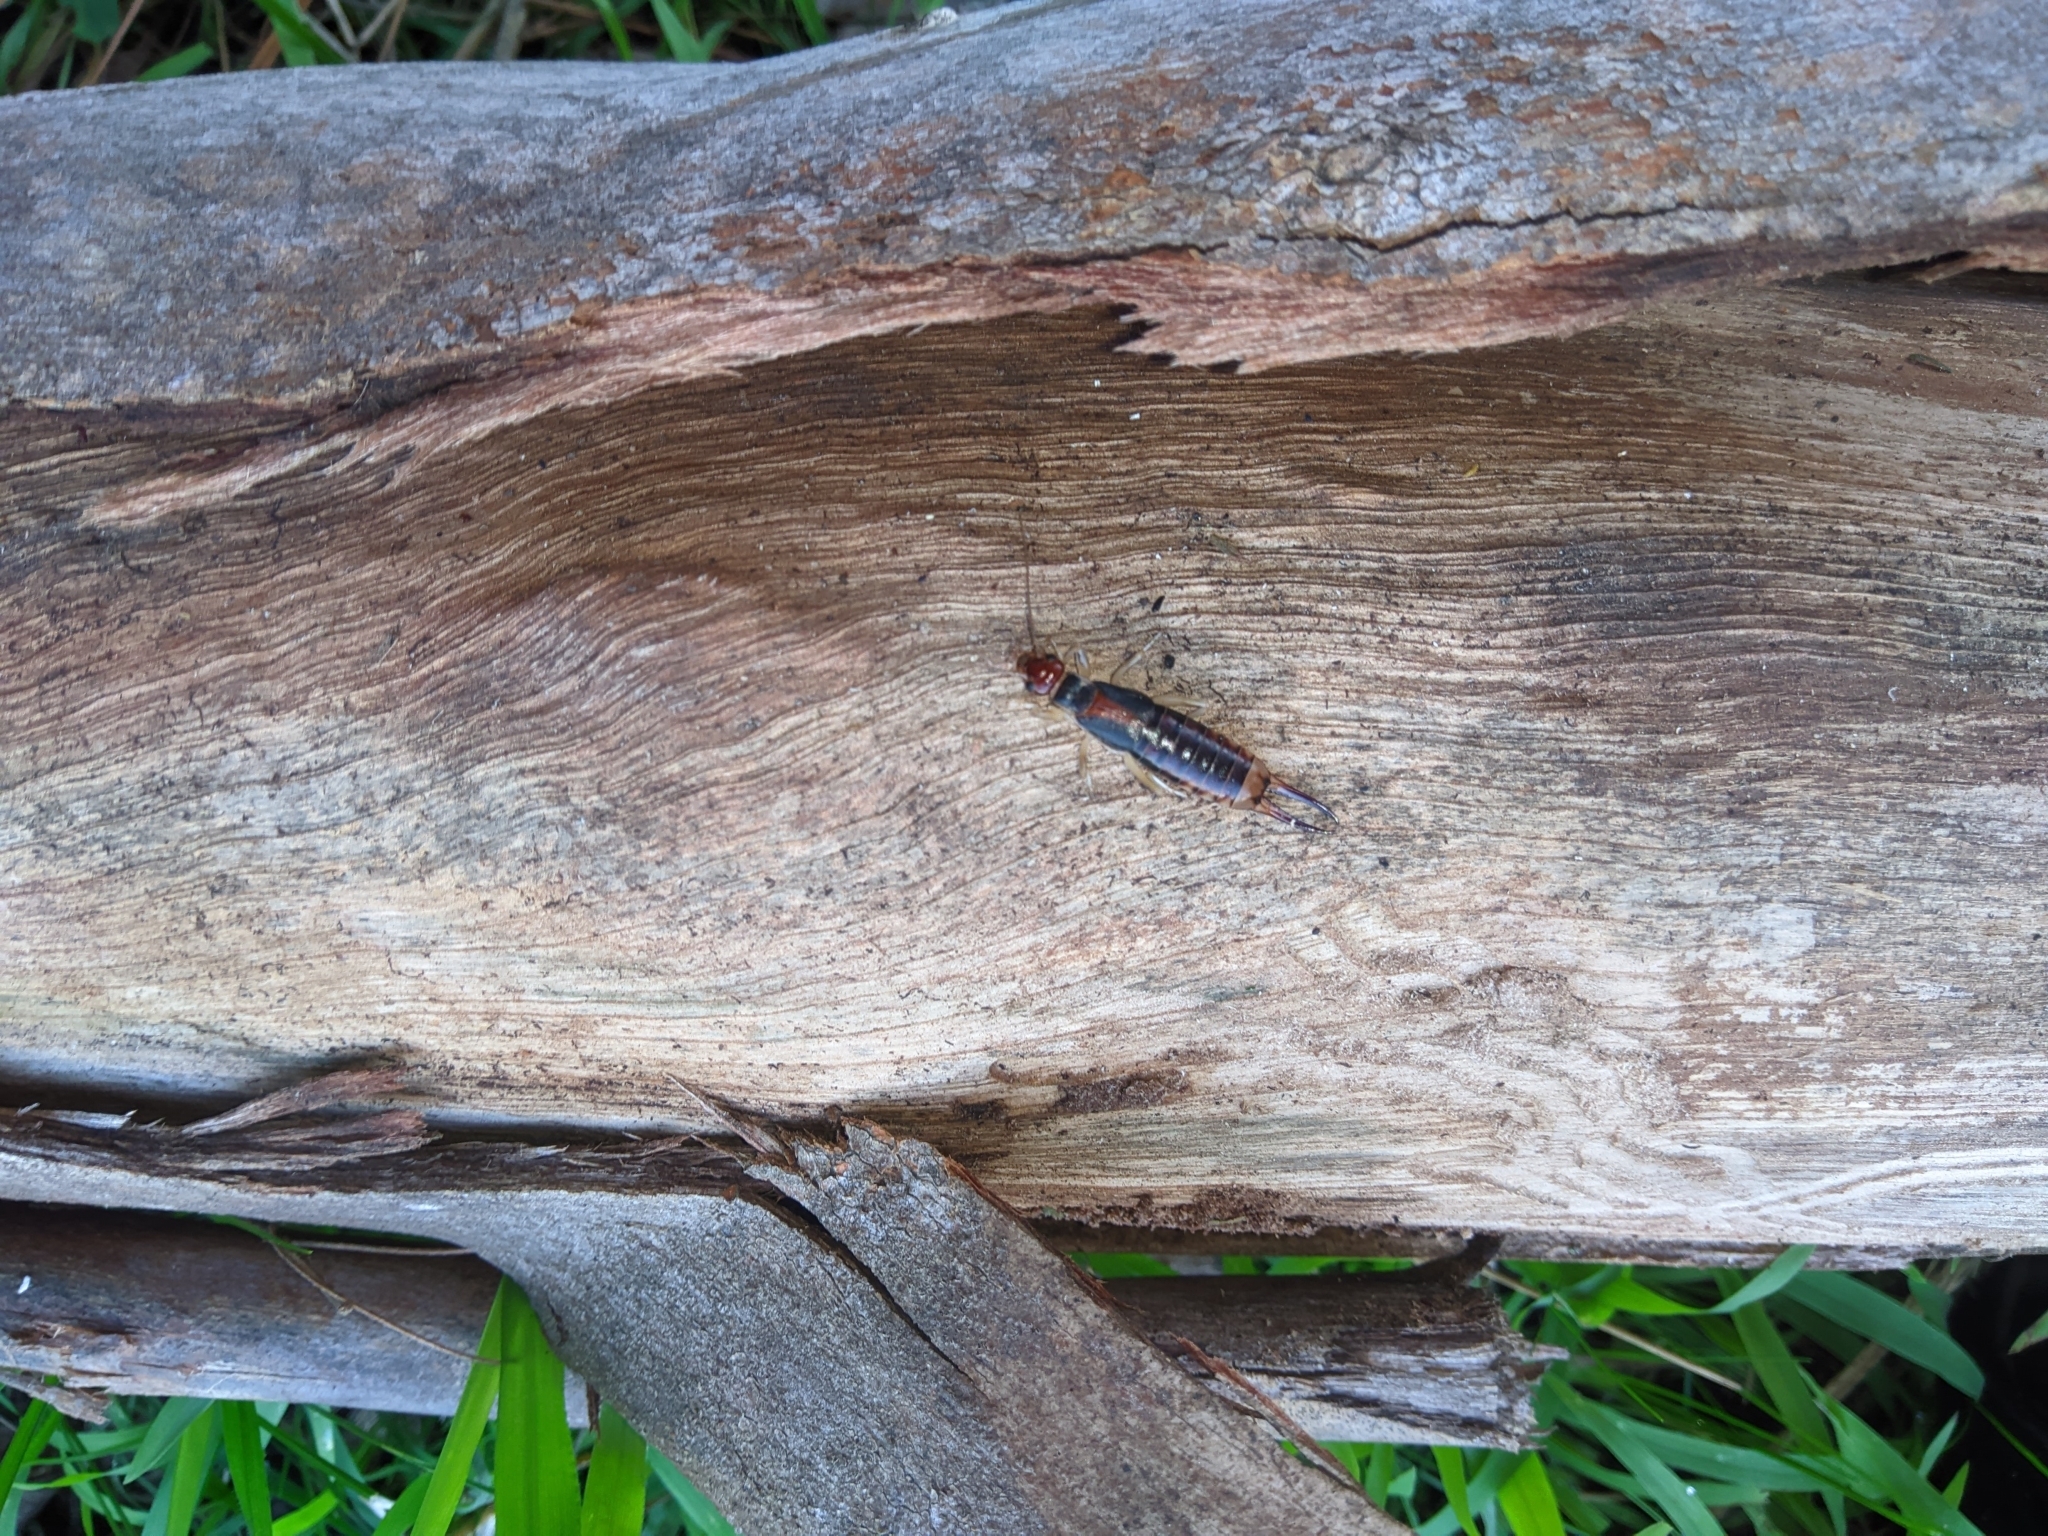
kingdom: Animalia
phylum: Arthropoda
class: Insecta
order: Dermaptera
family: Labiduridae
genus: Labidura
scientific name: Labidura riparia
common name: Striped earwig
